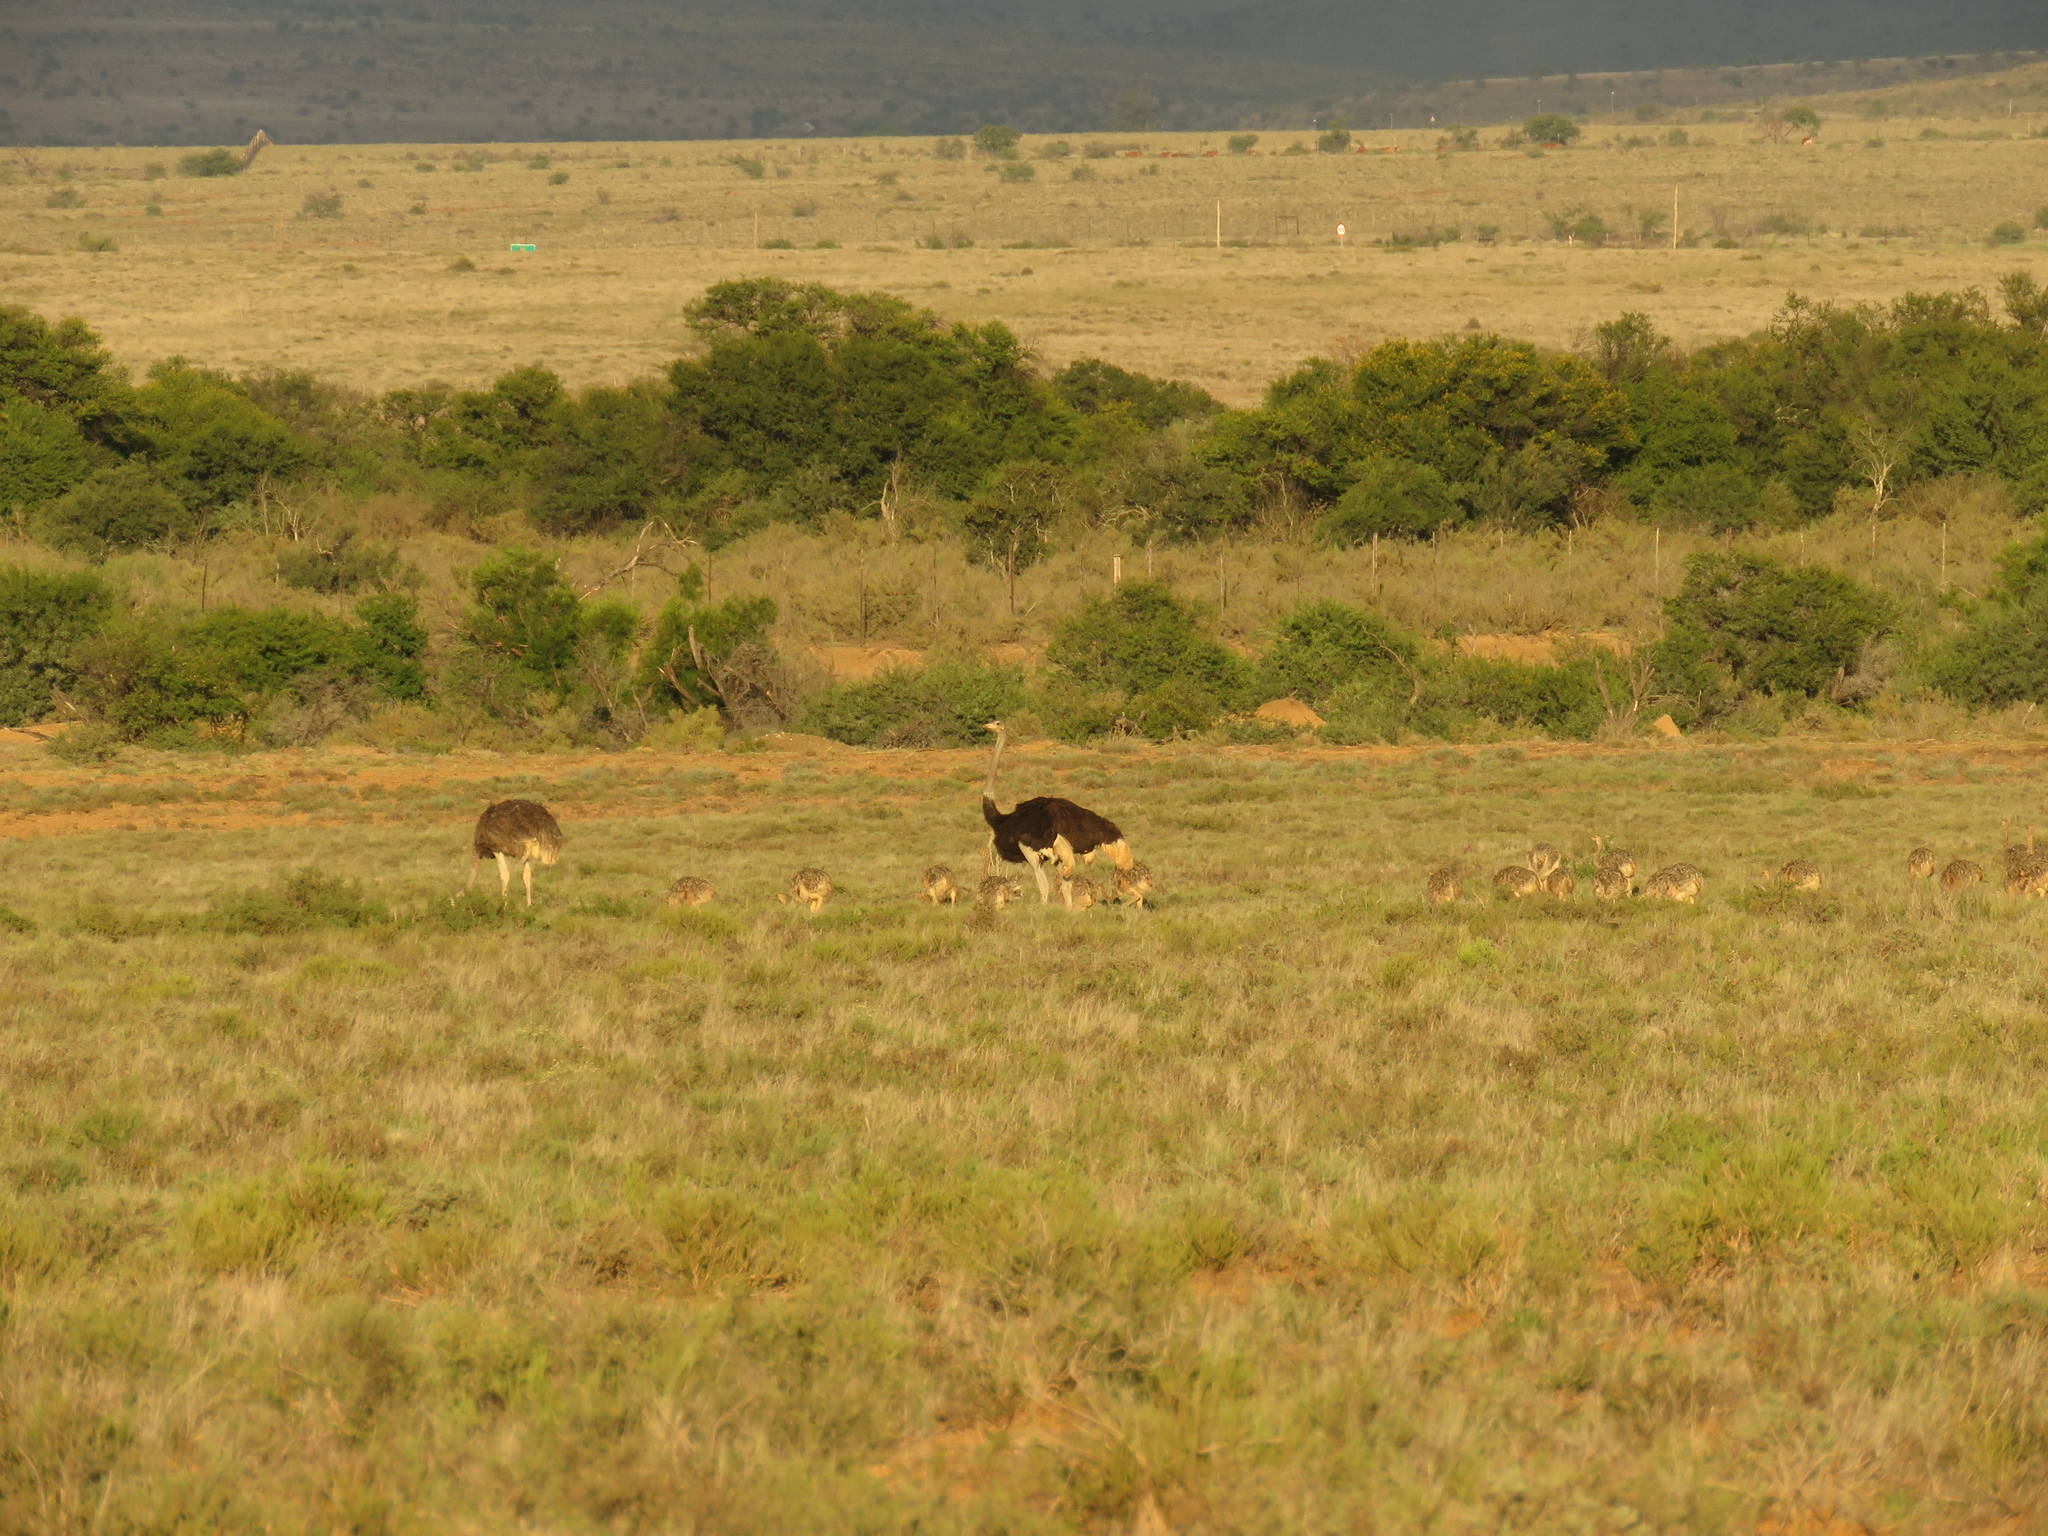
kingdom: Animalia
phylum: Chordata
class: Aves
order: Struthioniformes
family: Struthionidae
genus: Struthio
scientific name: Struthio camelus
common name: Common ostrich
